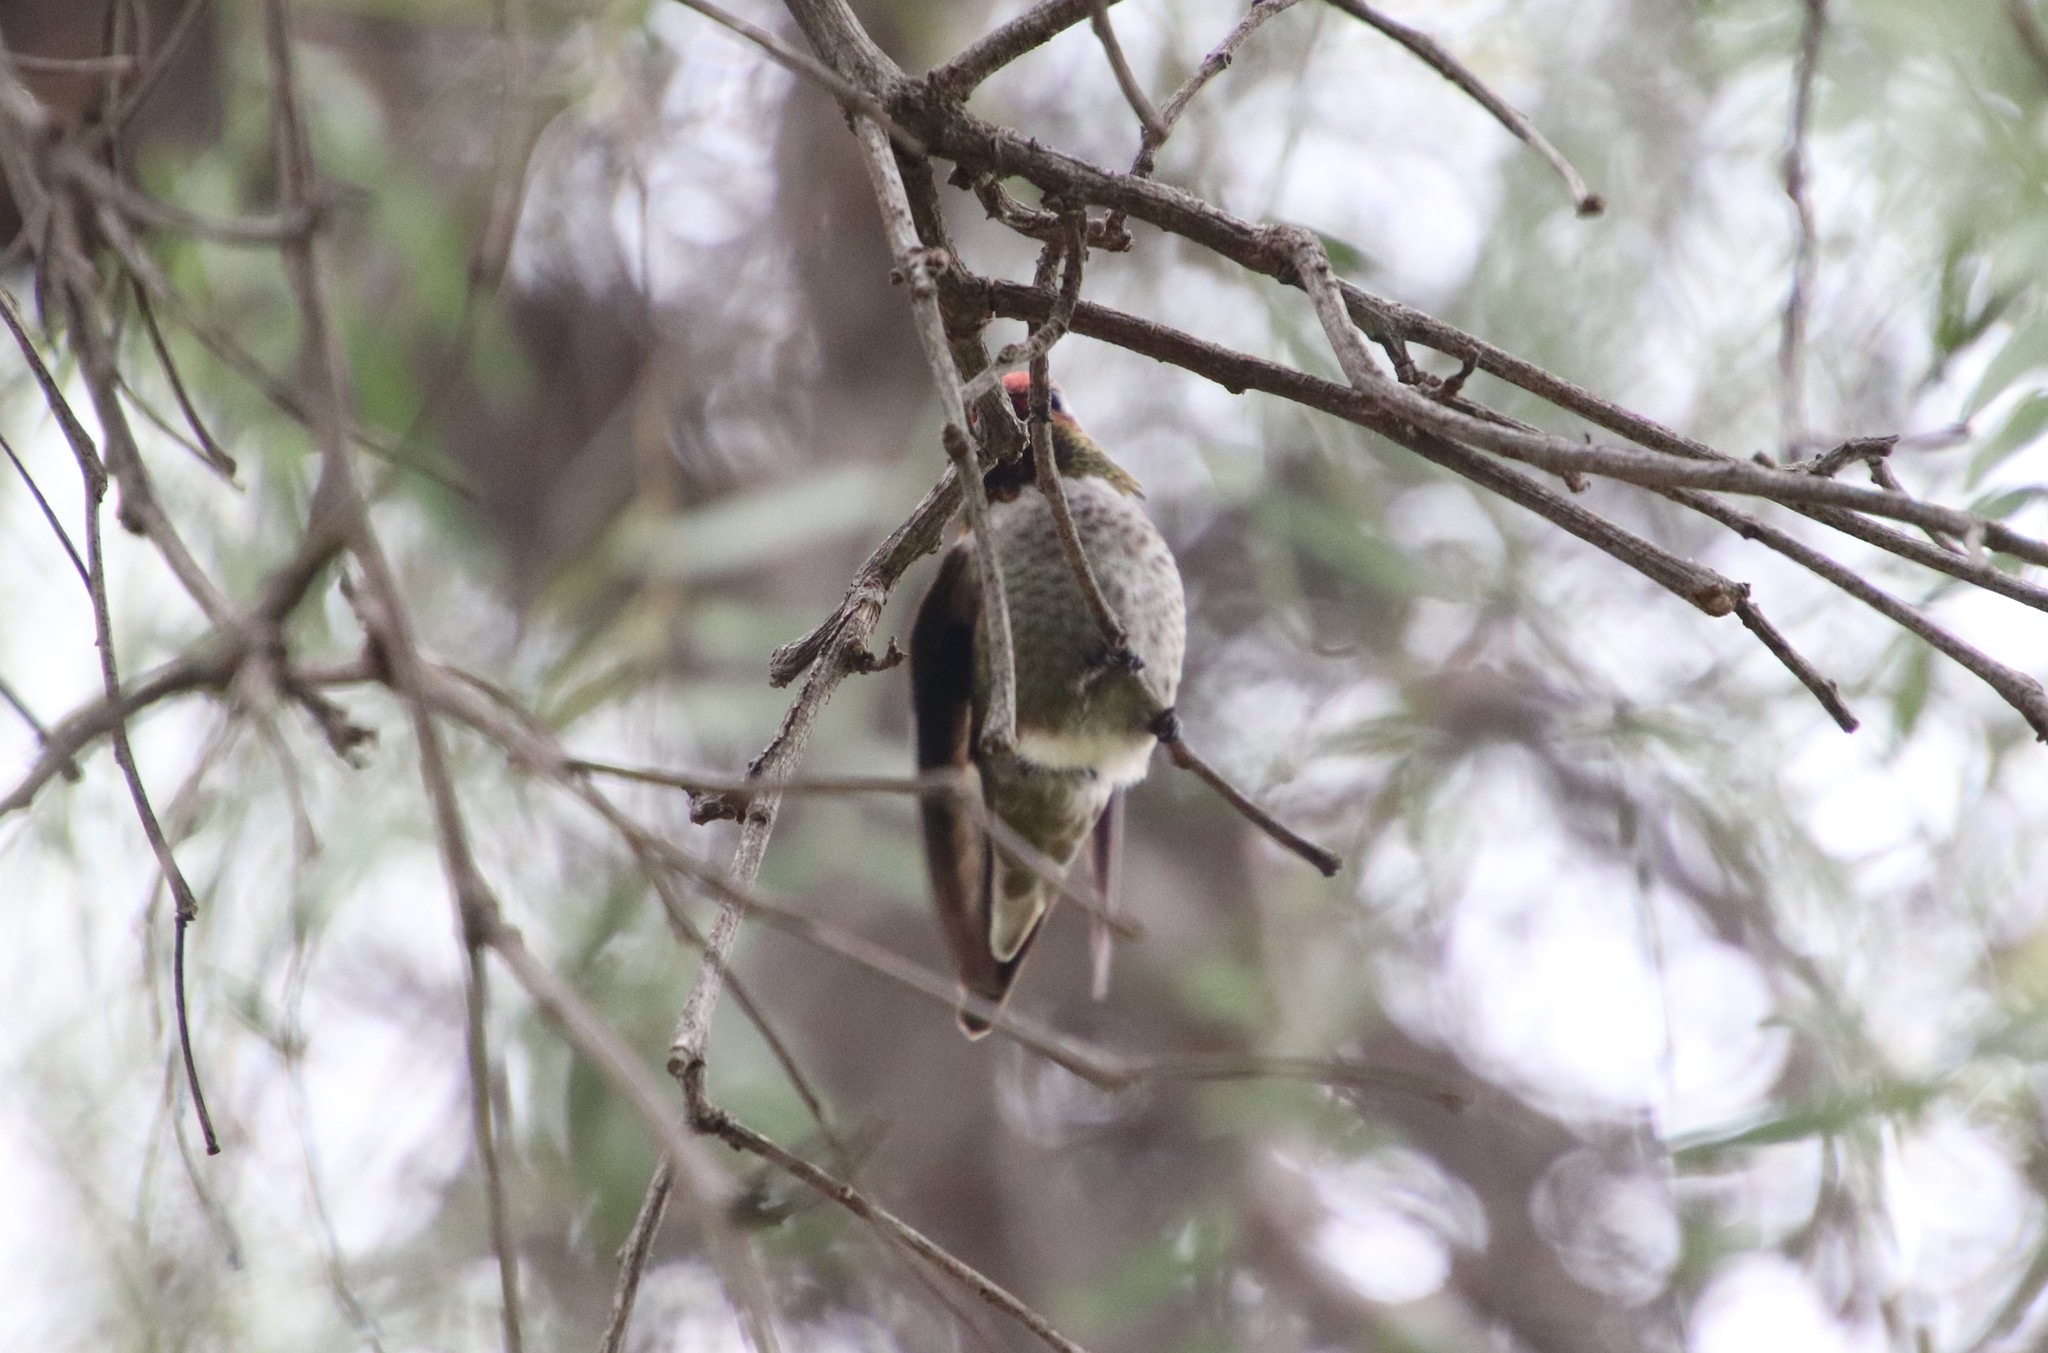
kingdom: Animalia
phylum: Chordata
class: Aves
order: Apodiformes
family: Trochilidae
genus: Calypte
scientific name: Calypte anna
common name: Anna's hummingbird
